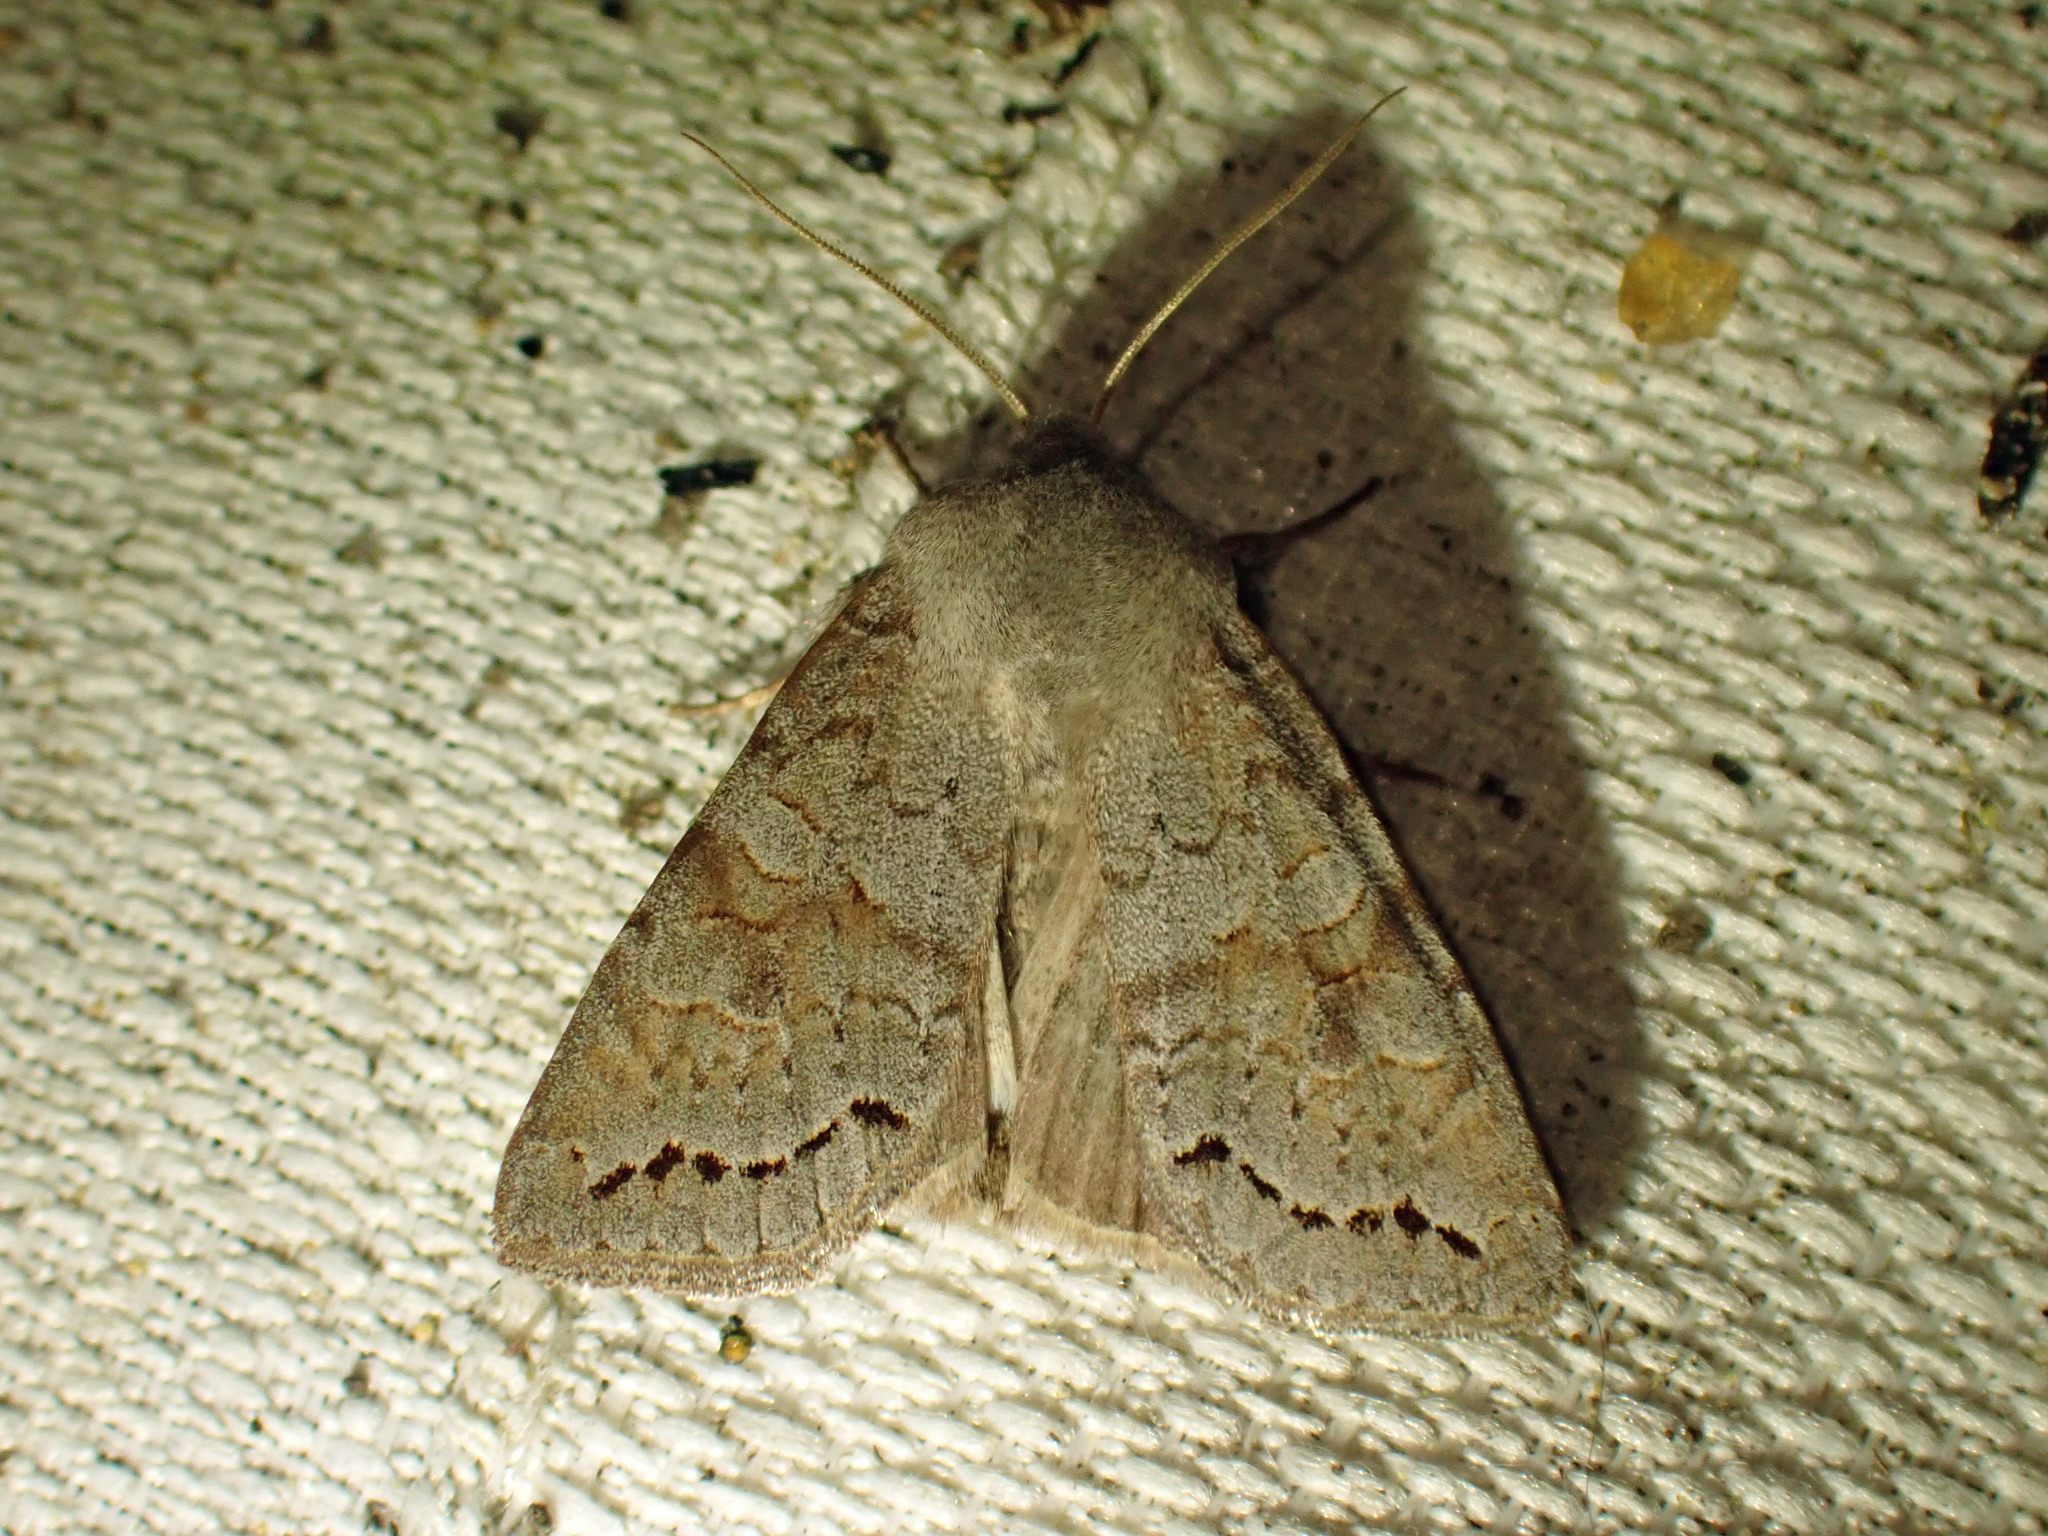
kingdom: Animalia
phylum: Arthropoda
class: Insecta
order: Lepidoptera
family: Noctuidae
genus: Orthosia
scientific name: Orthosia revicta
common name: Rusty whitesided caterpillar
